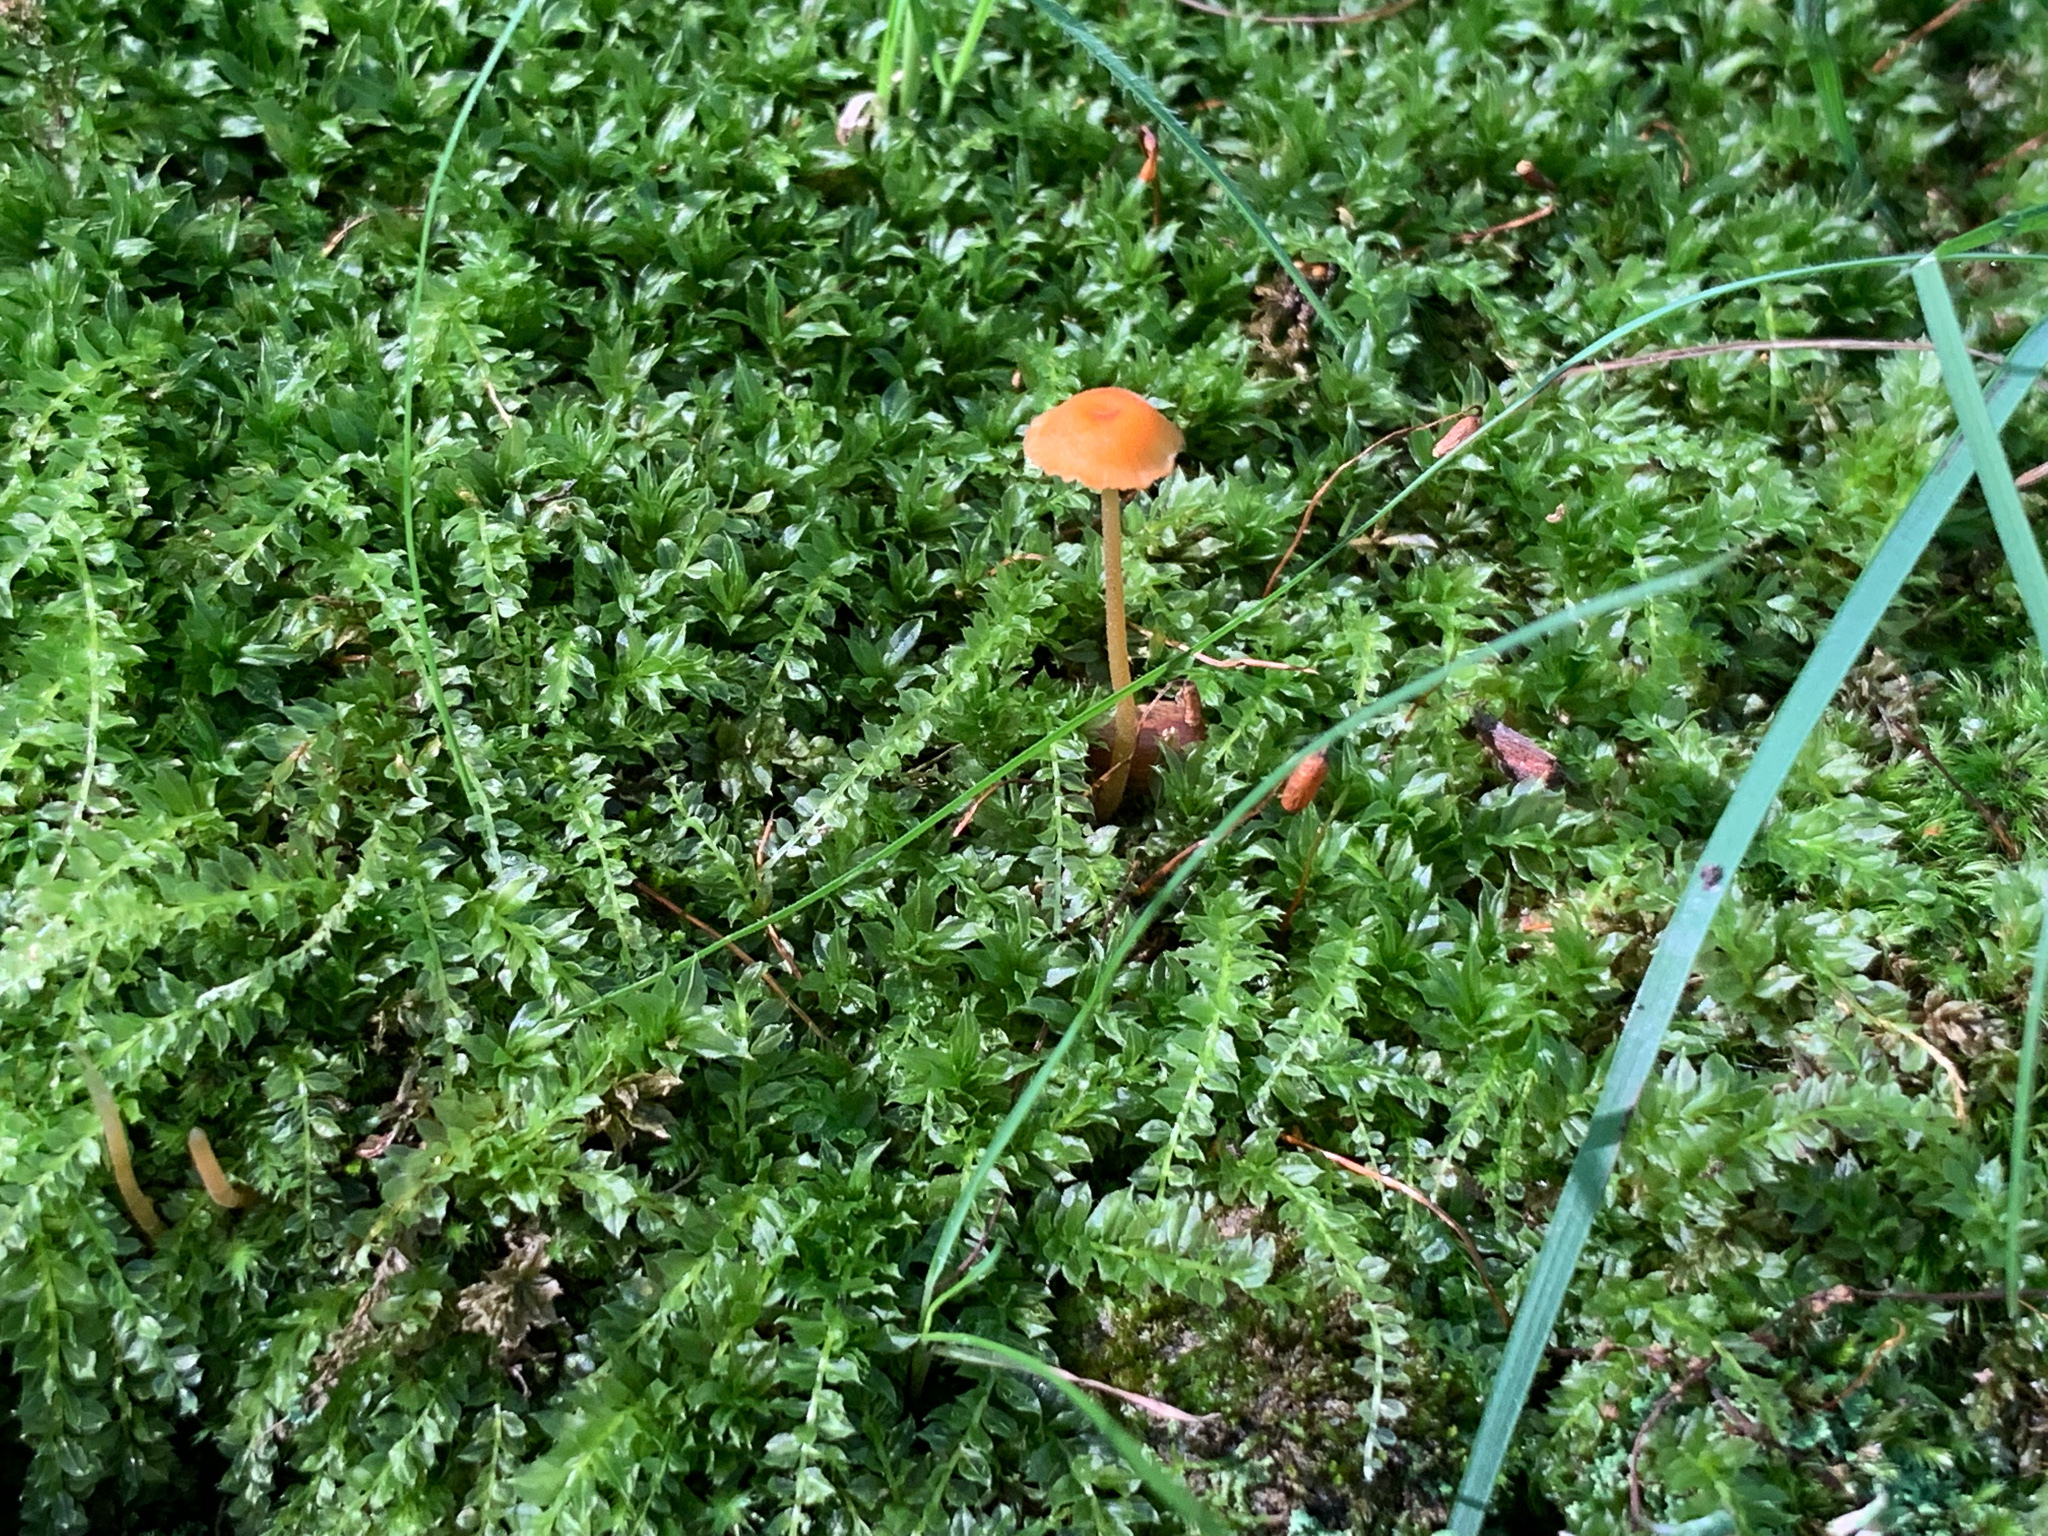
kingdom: Fungi
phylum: Basidiomycota
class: Agaricomycetes
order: Hymenochaetales
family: Rickenellaceae
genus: Rickenella
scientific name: Rickenella fibula
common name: Orange mosscap
